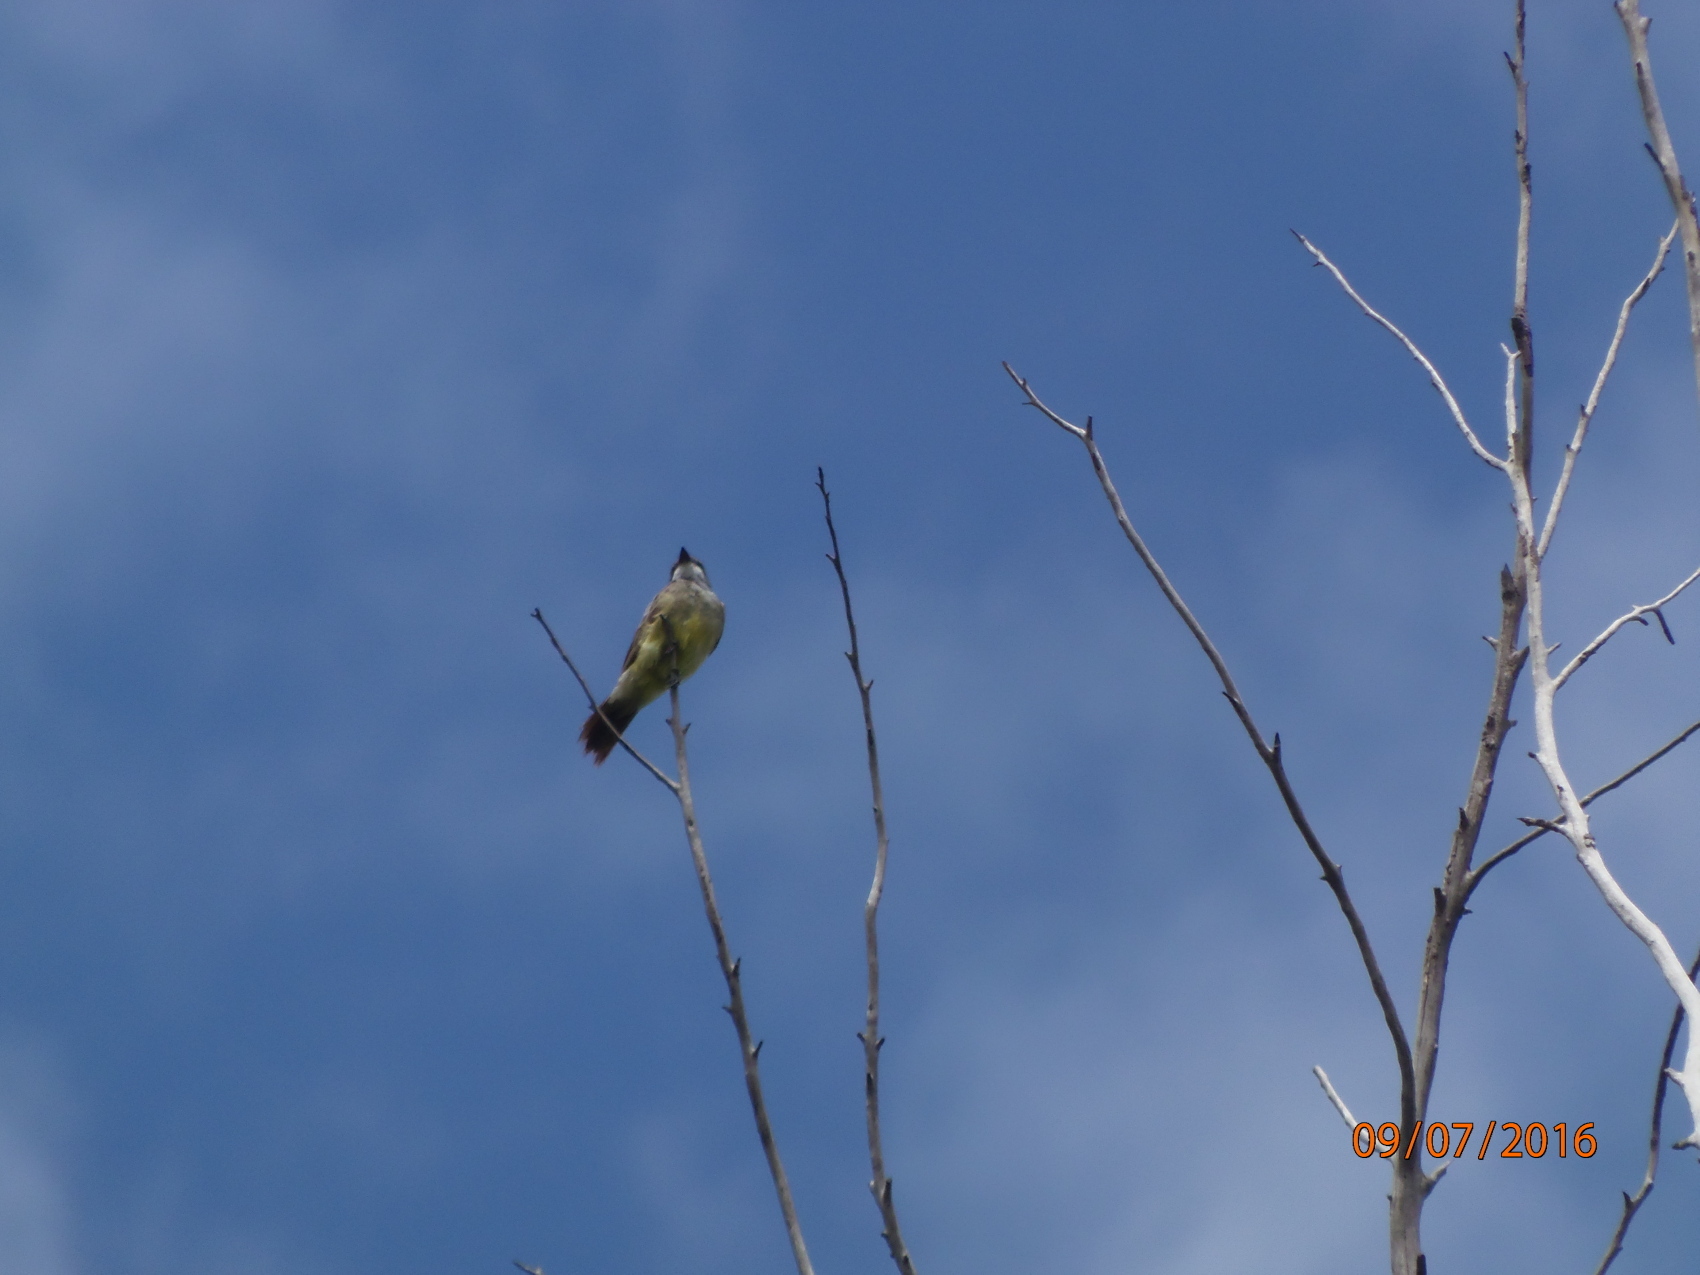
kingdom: Animalia
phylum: Chordata
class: Aves
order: Passeriformes
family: Tyrannidae
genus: Tyrannus
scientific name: Tyrannus vociferans
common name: Cassin's kingbird
